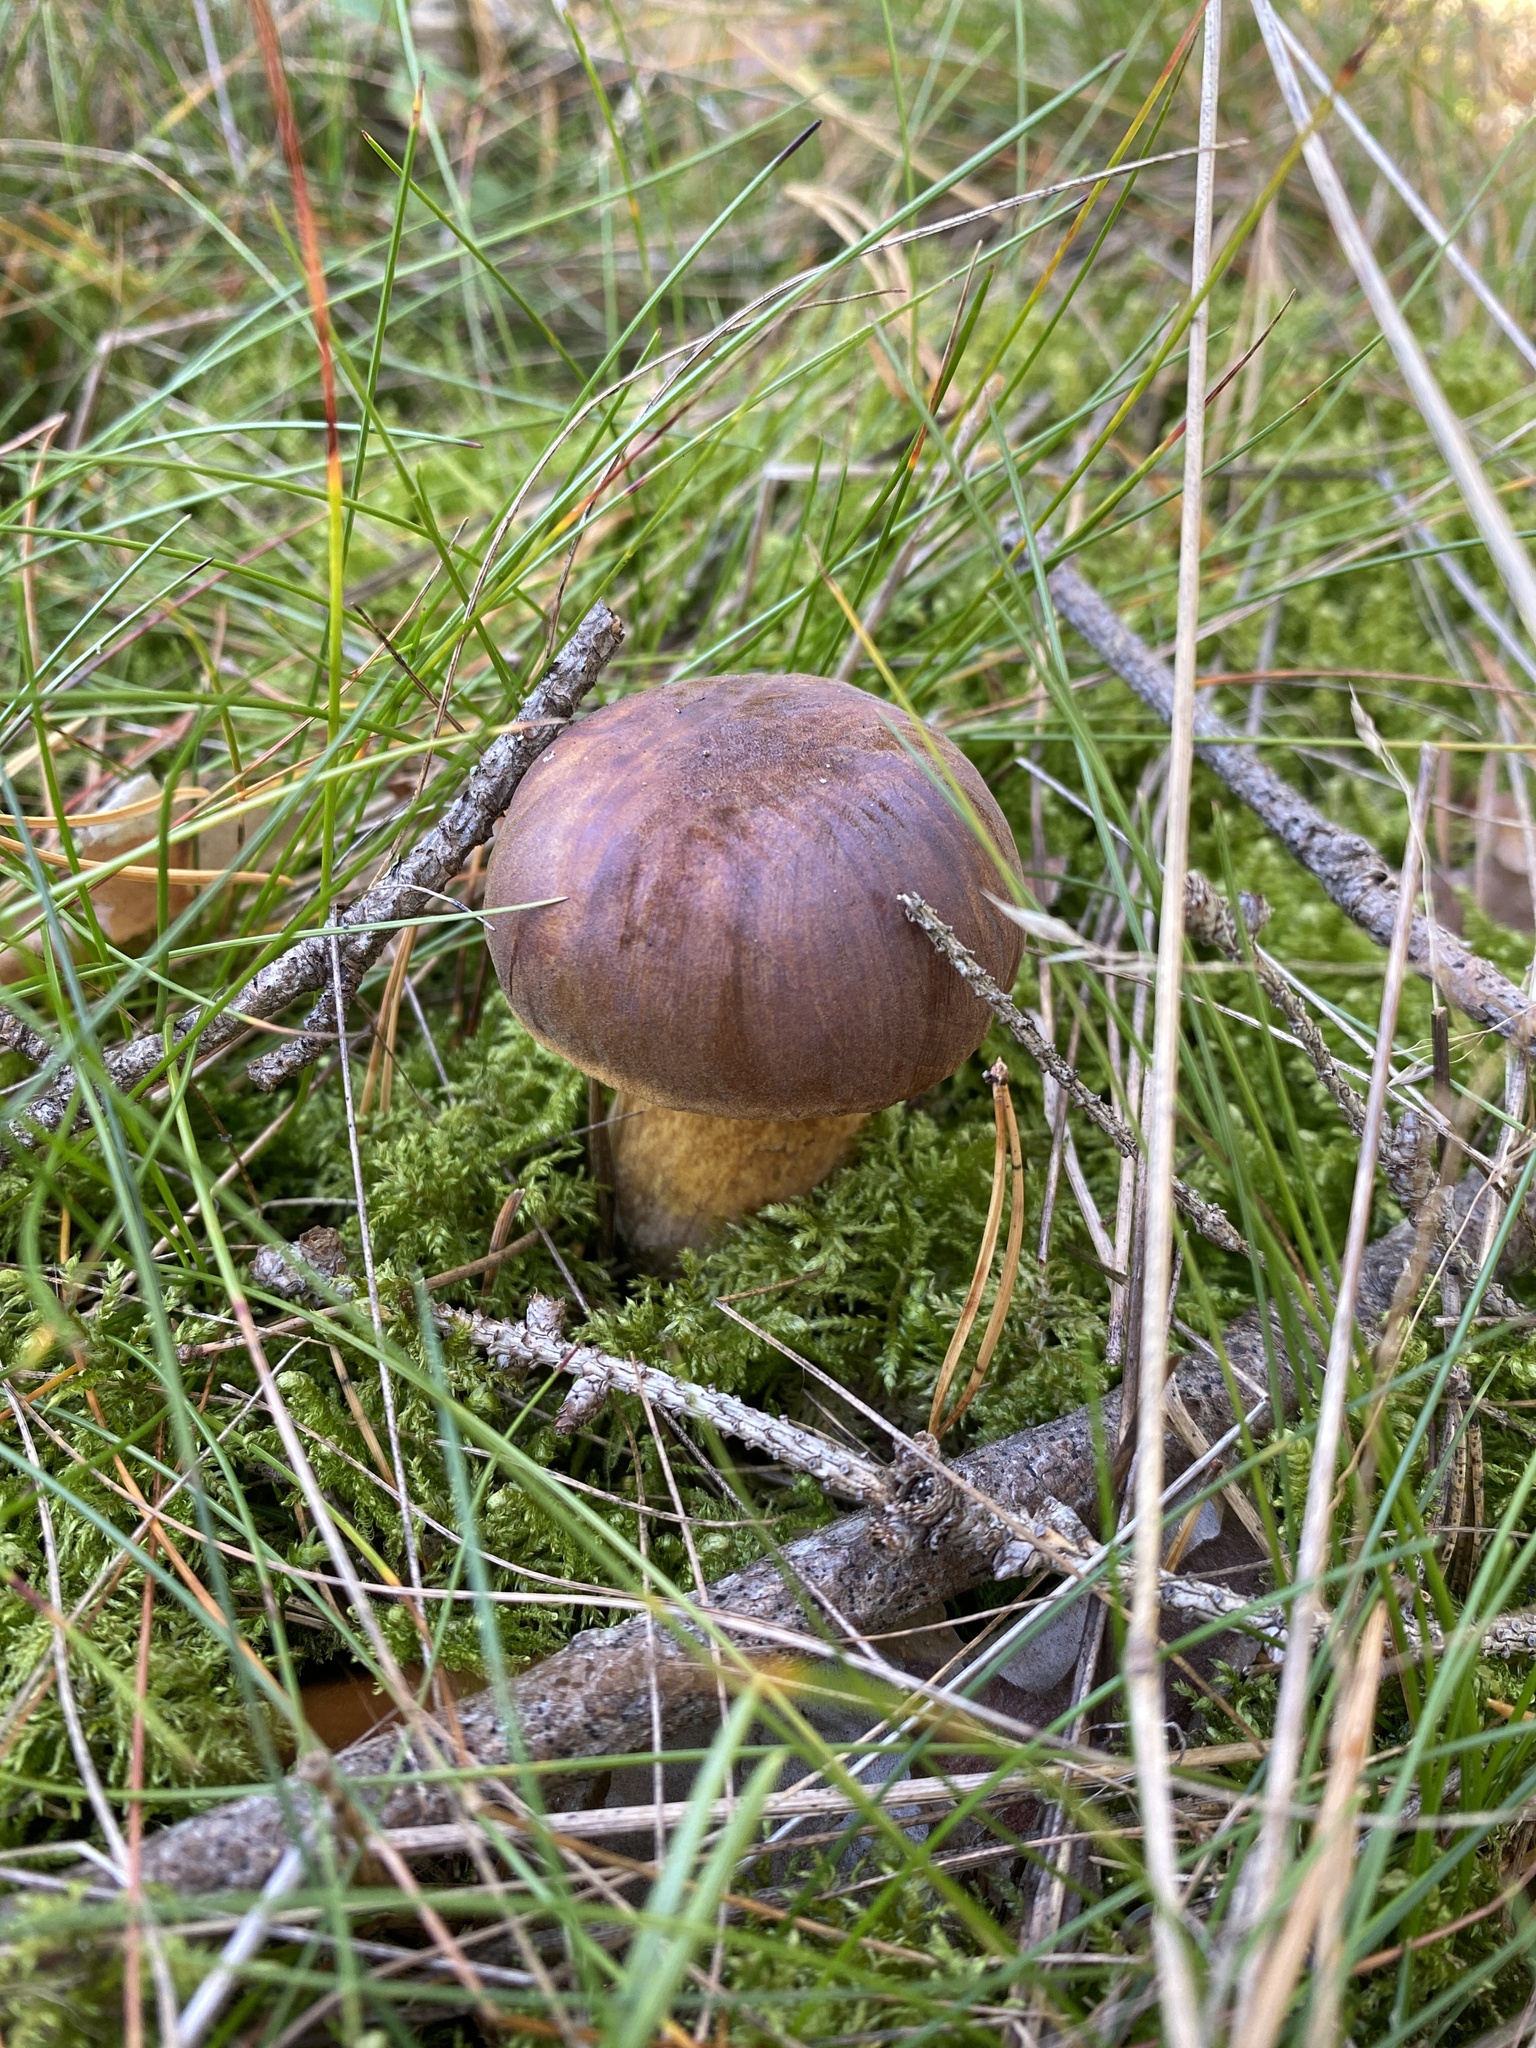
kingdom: Fungi
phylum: Basidiomycota
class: Agaricomycetes
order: Boletales
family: Boletaceae
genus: Imleria
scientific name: Imleria badia
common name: Bay bolete
